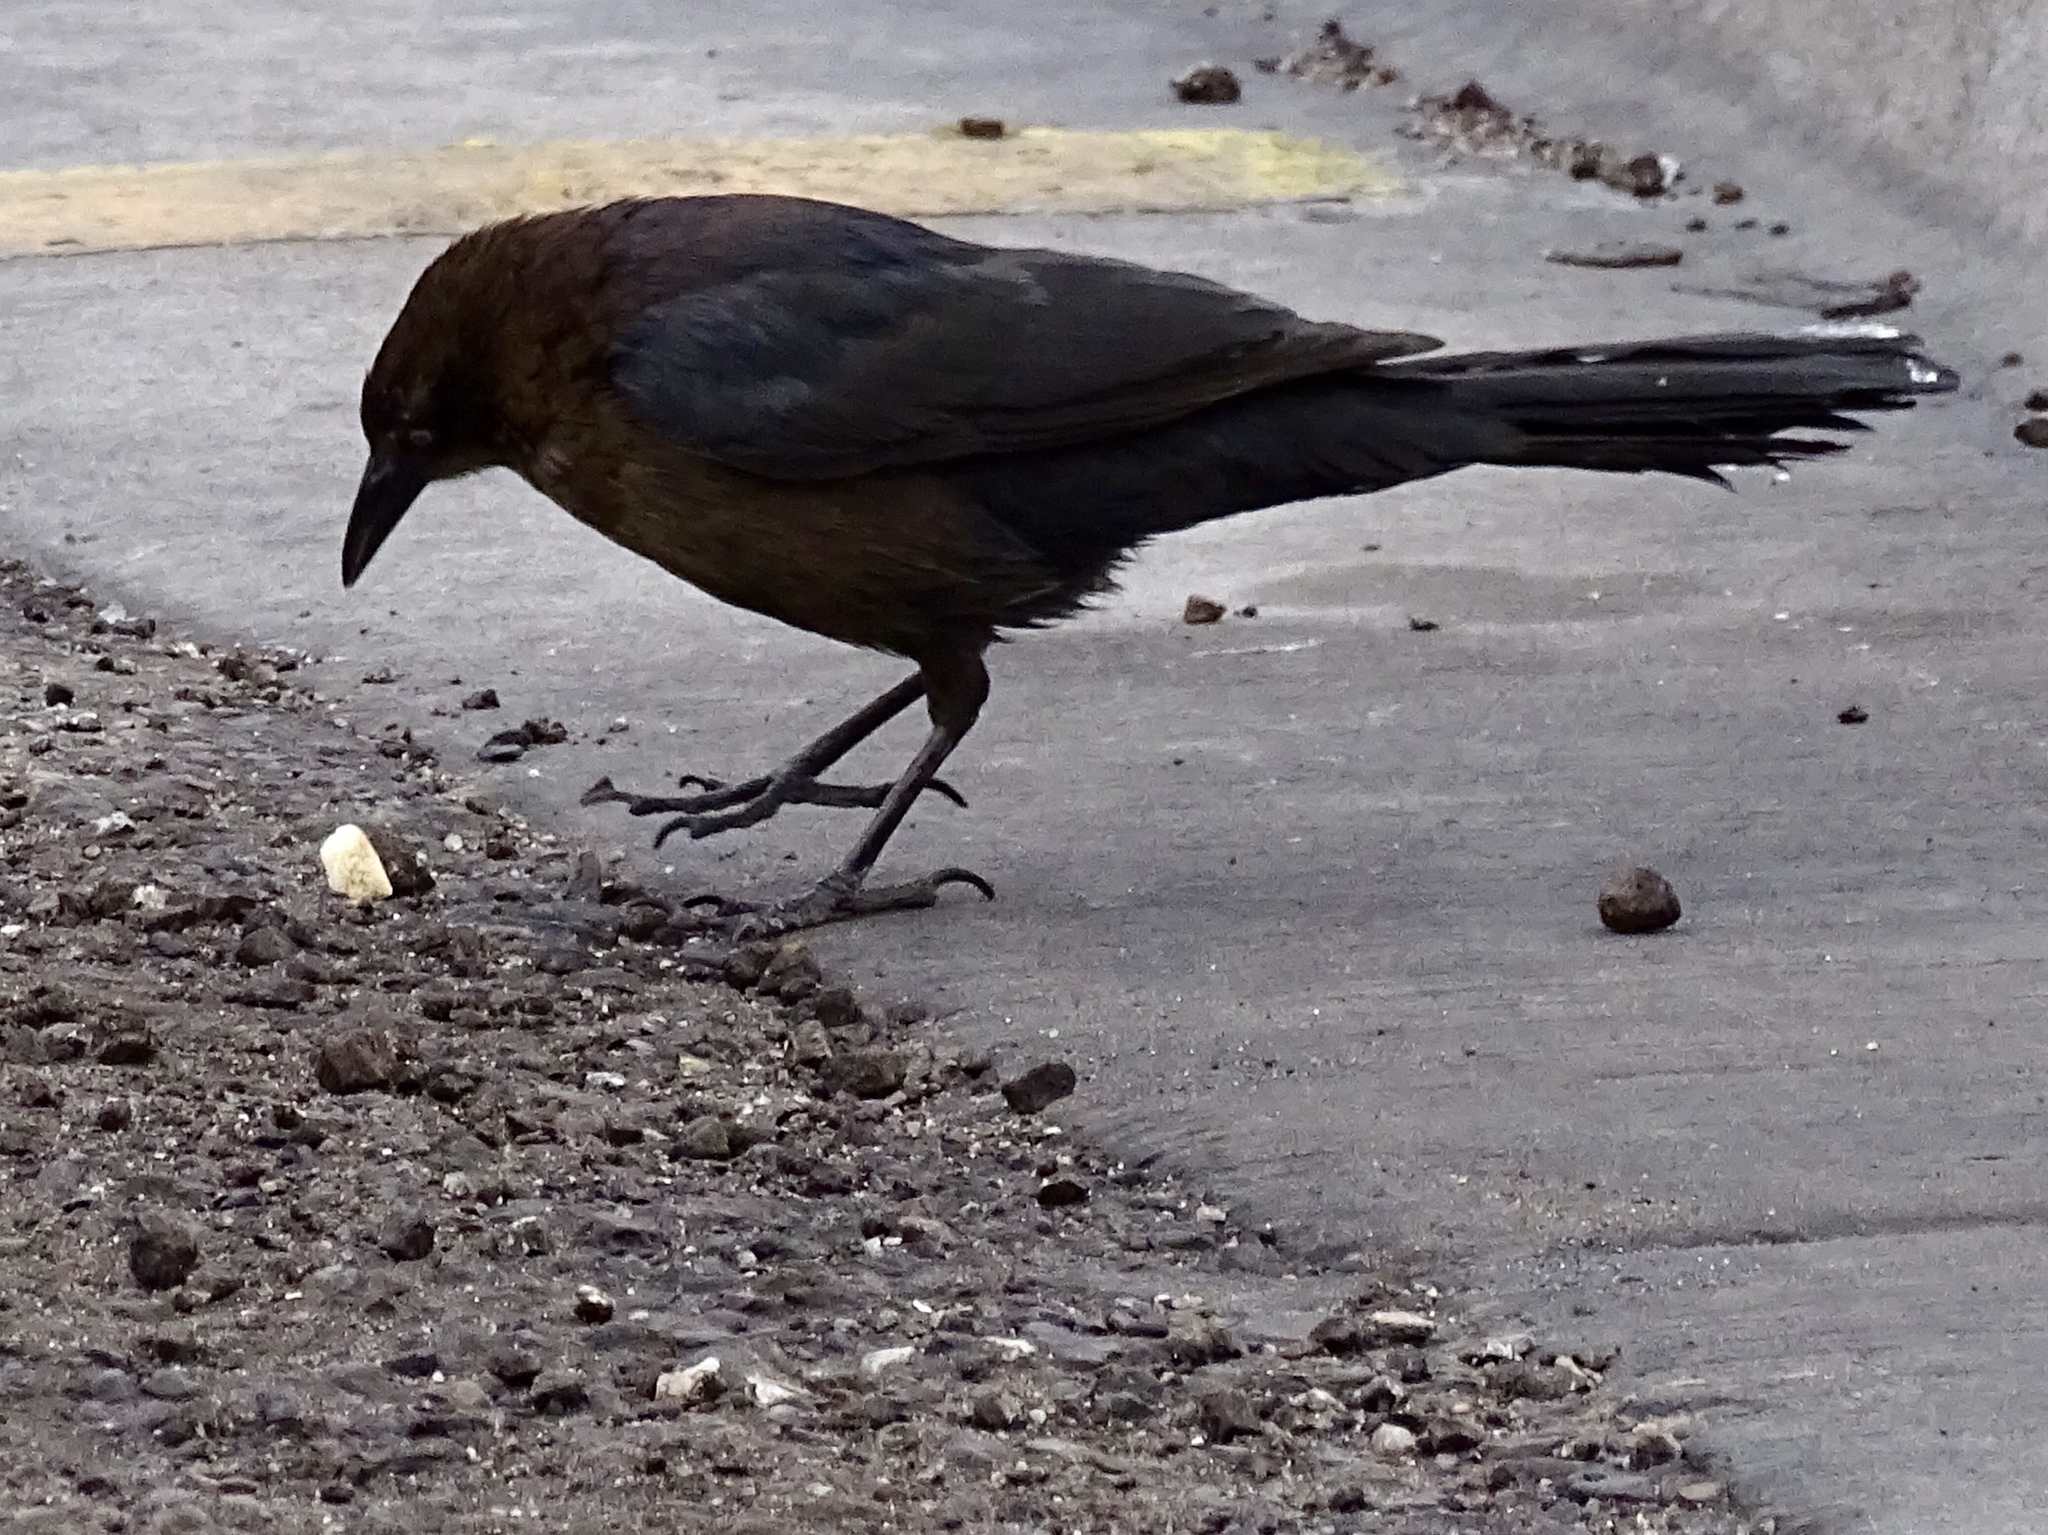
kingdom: Animalia
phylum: Chordata
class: Aves
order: Passeriformes
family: Icteridae
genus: Quiscalus
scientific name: Quiscalus mexicanus
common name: Great-tailed grackle
